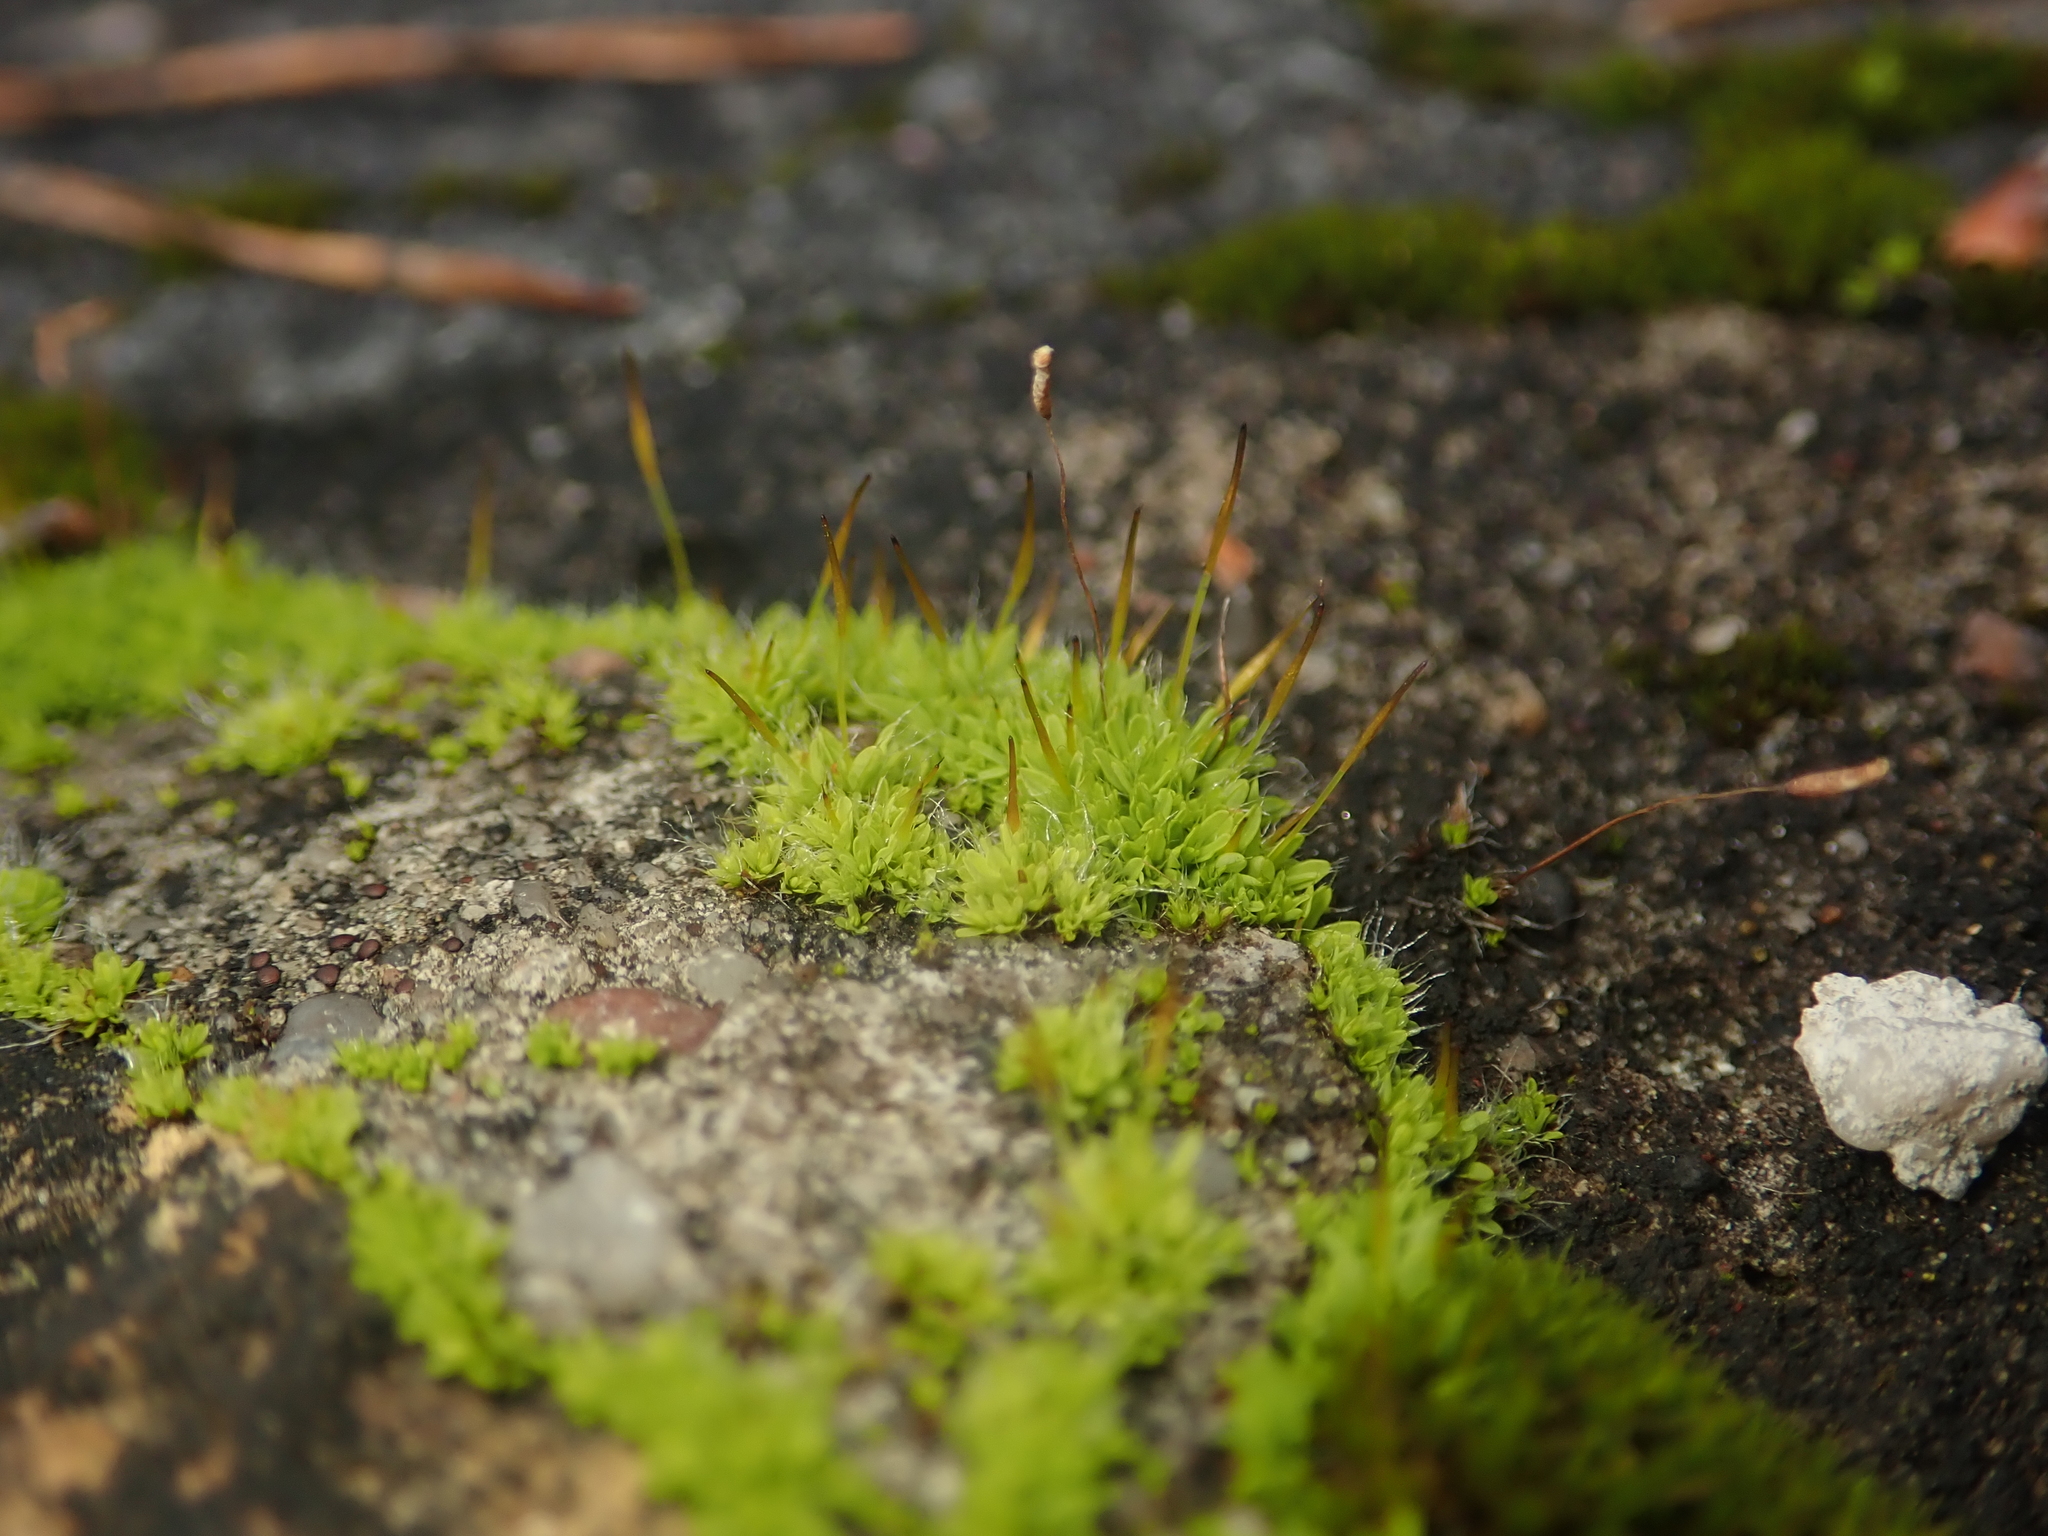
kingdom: Plantae
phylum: Bryophyta
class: Bryopsida
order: Pottiales
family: Pottiaceae
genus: Tortula
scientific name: Tortula muralis
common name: Wall screw-moss
